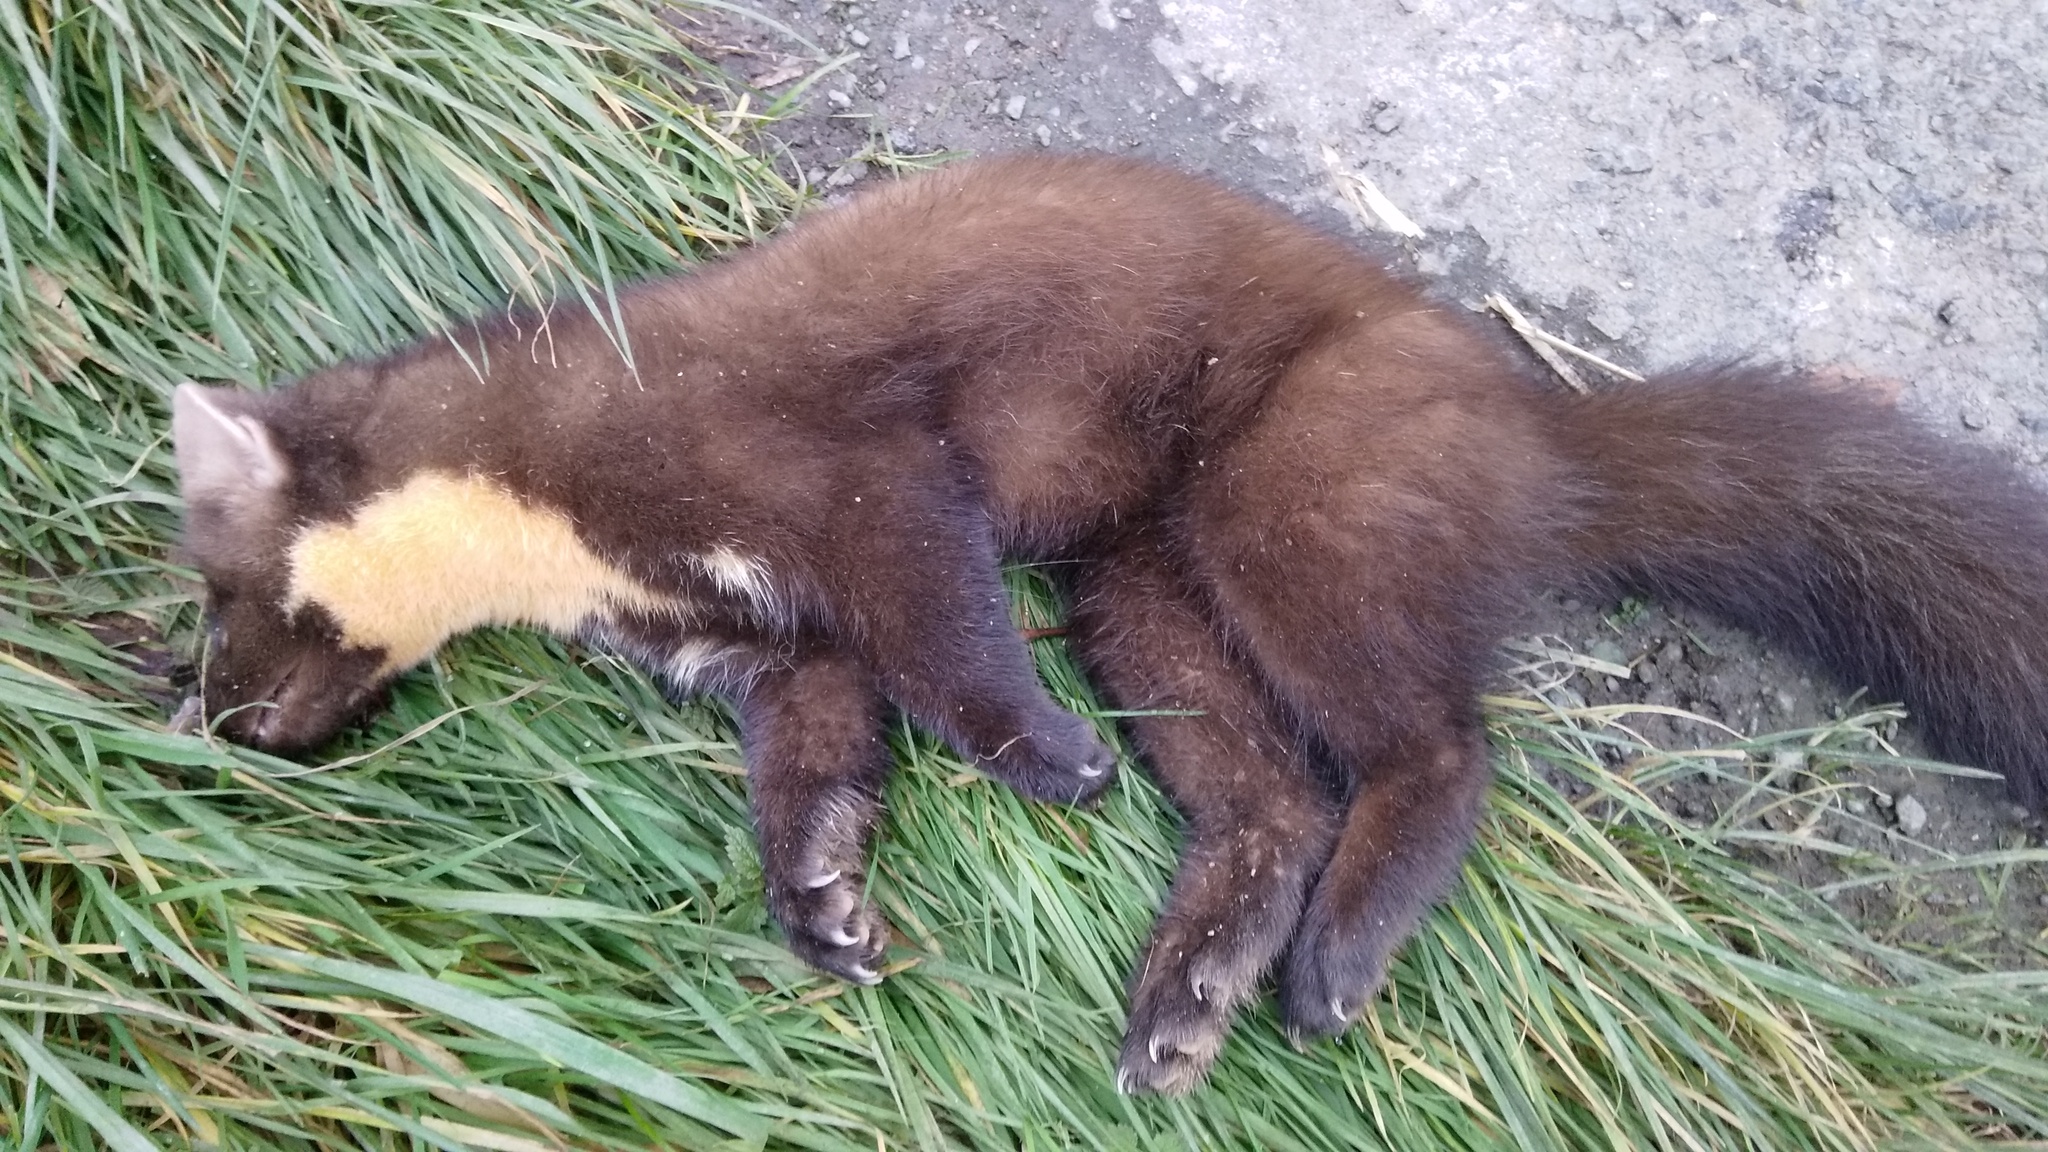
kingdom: Animalia
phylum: Chordata
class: Mammalia
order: Carnivora
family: Mustelidae
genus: Martes
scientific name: Martes martes
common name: European pine marten
